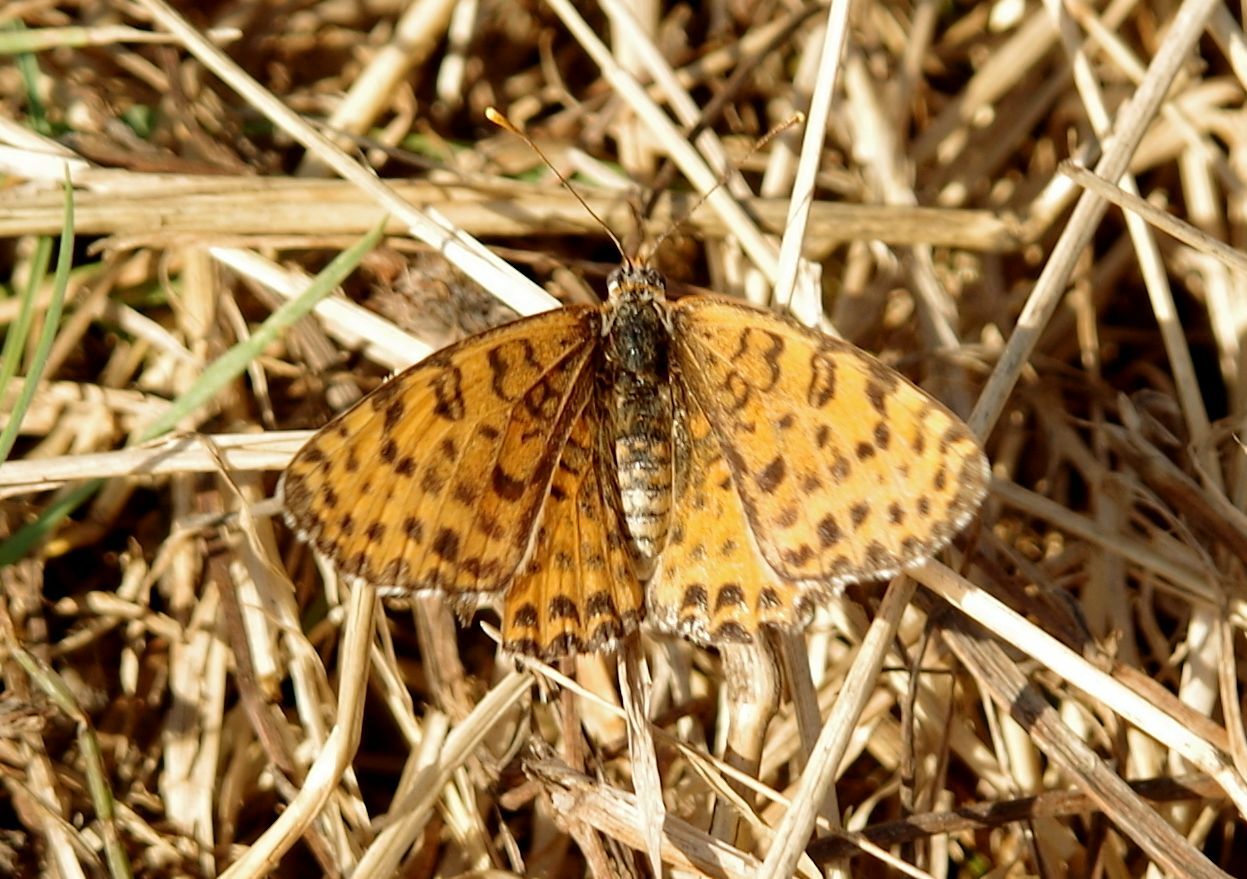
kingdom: Animalia
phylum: Arthropoda
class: Insecta
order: Lepidoptera
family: Nymphalidae
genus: Melitaea
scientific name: Melitaea didyma
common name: Spotted fritillary
